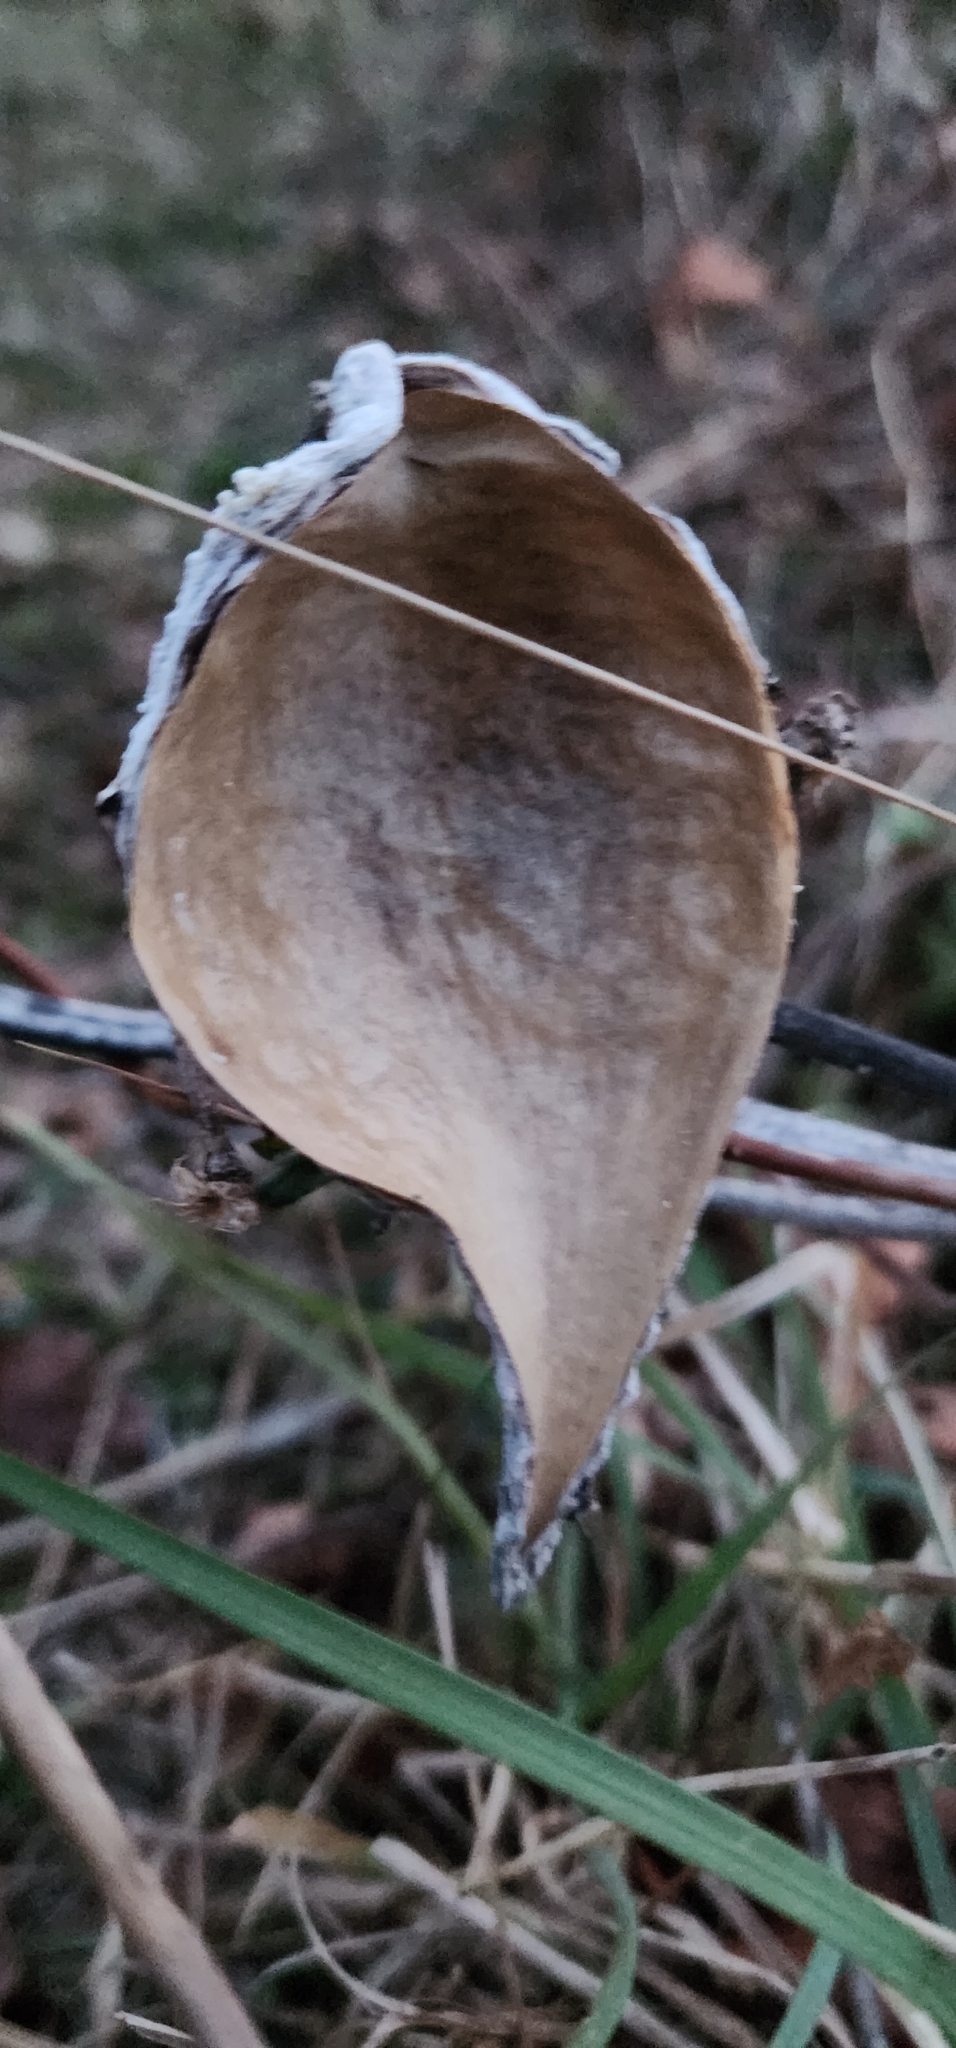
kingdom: Plantae
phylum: Tracheophyta
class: Magnoliopsida
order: Gentianales
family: Apocynaceae
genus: Asclepias
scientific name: Asclepias syriaca
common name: Common milkweed
